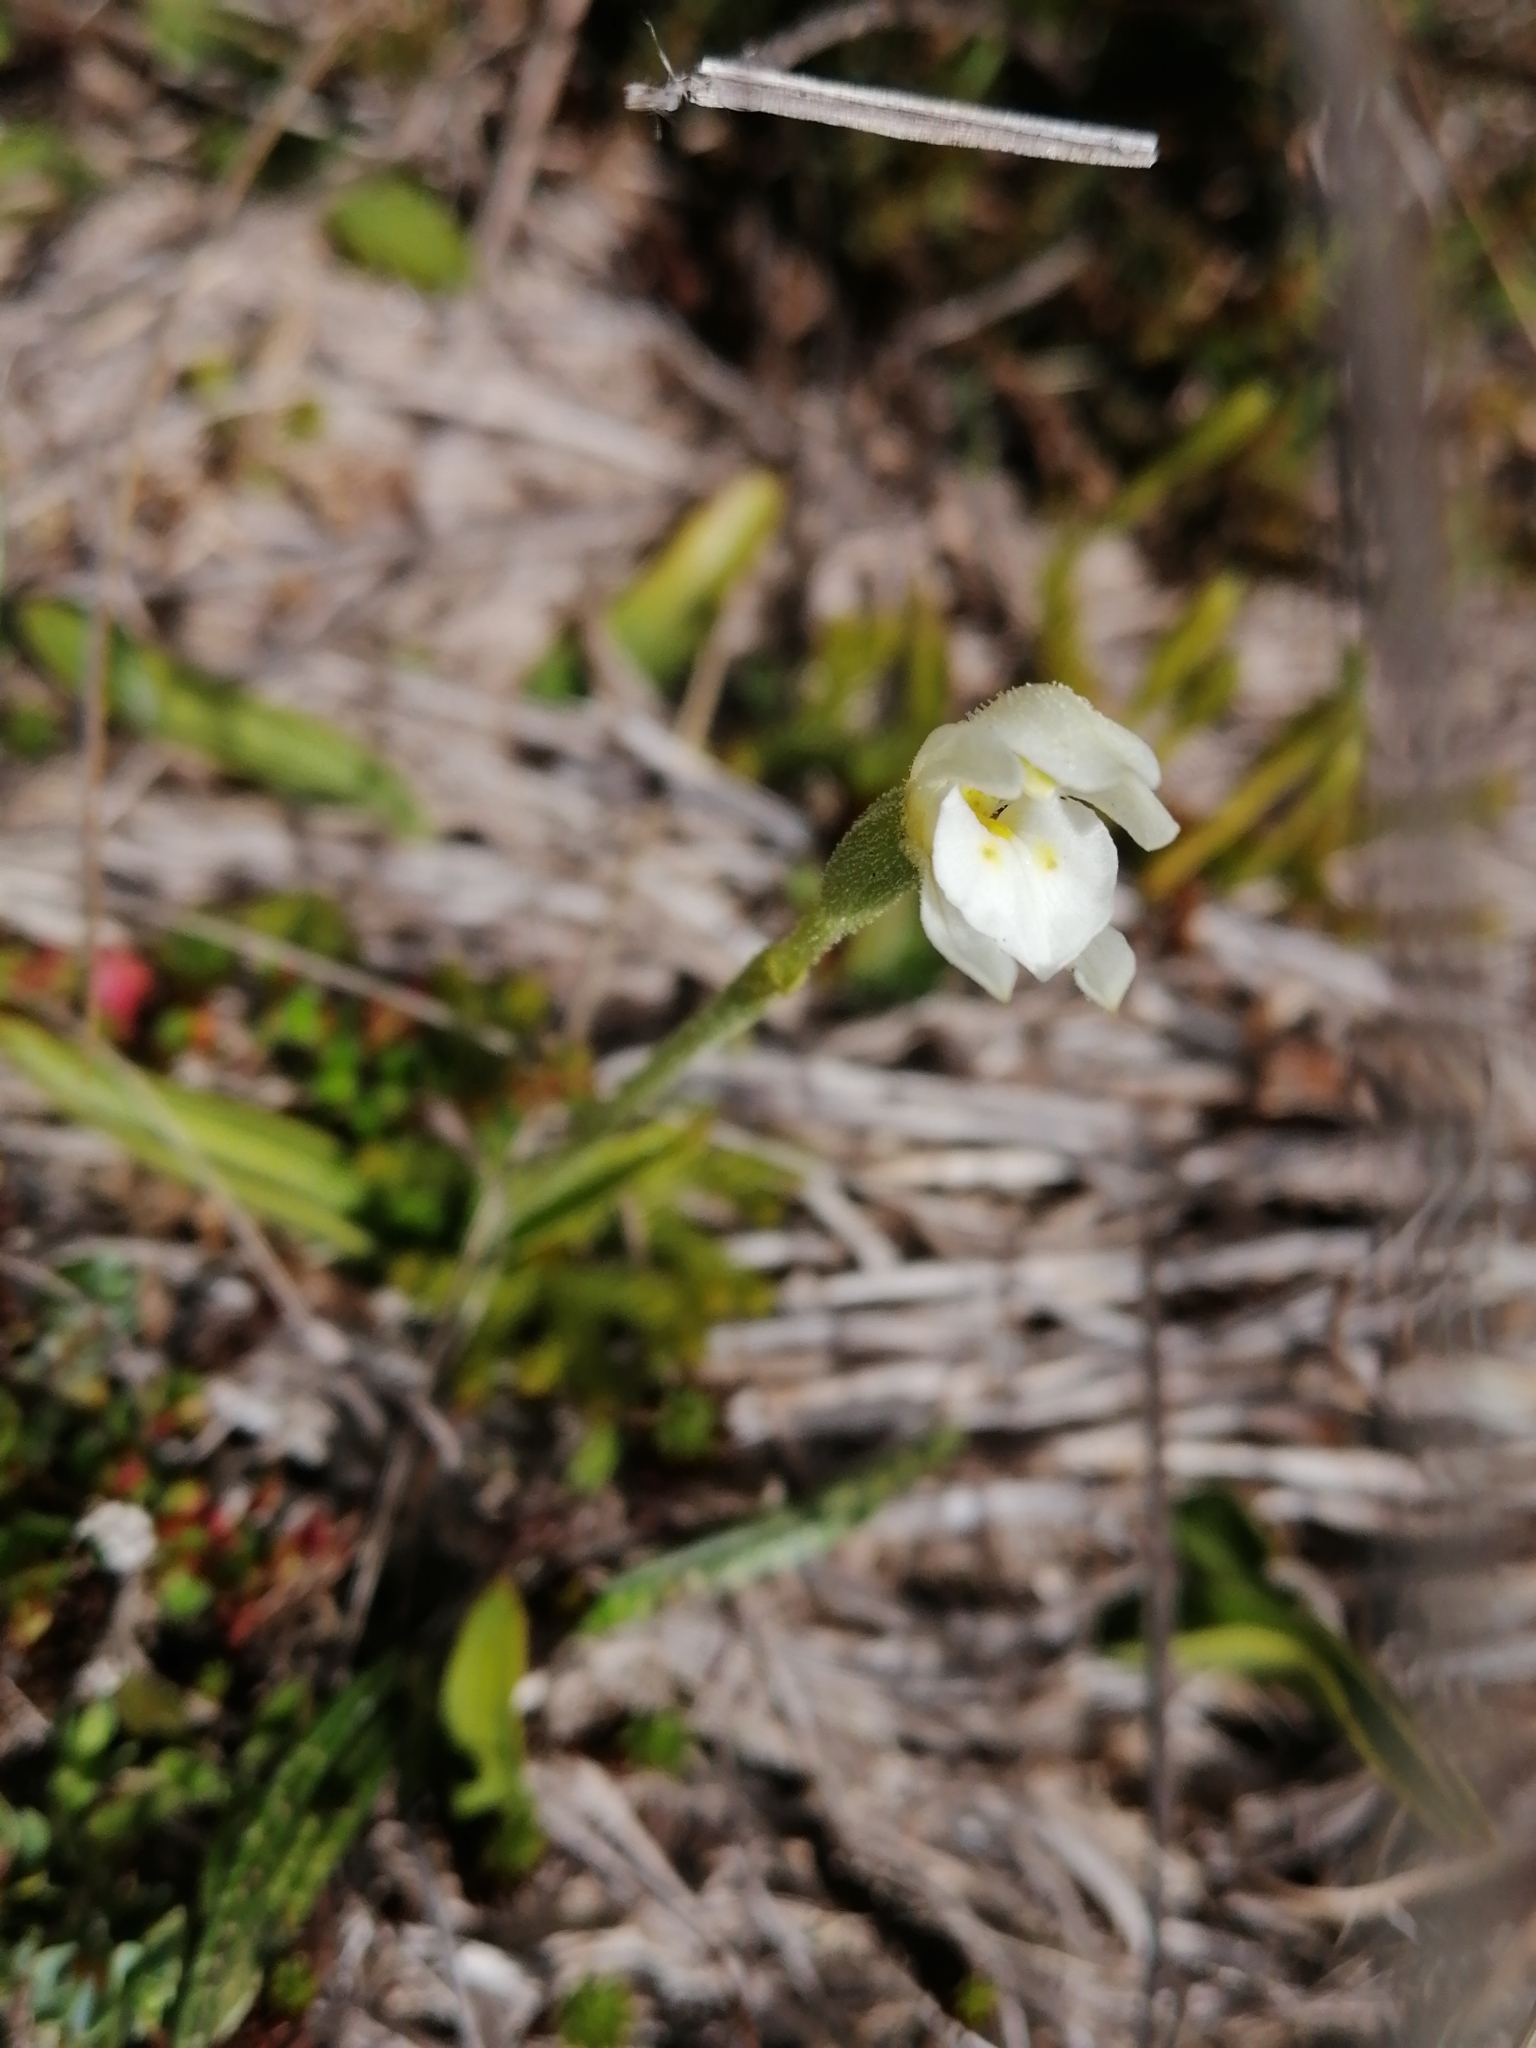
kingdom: Plantae
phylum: Tracheophyta
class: Liliopsida
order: Asparagales
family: Orchidaceae
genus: Aporostylis
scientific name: Aporostylis bifolia
